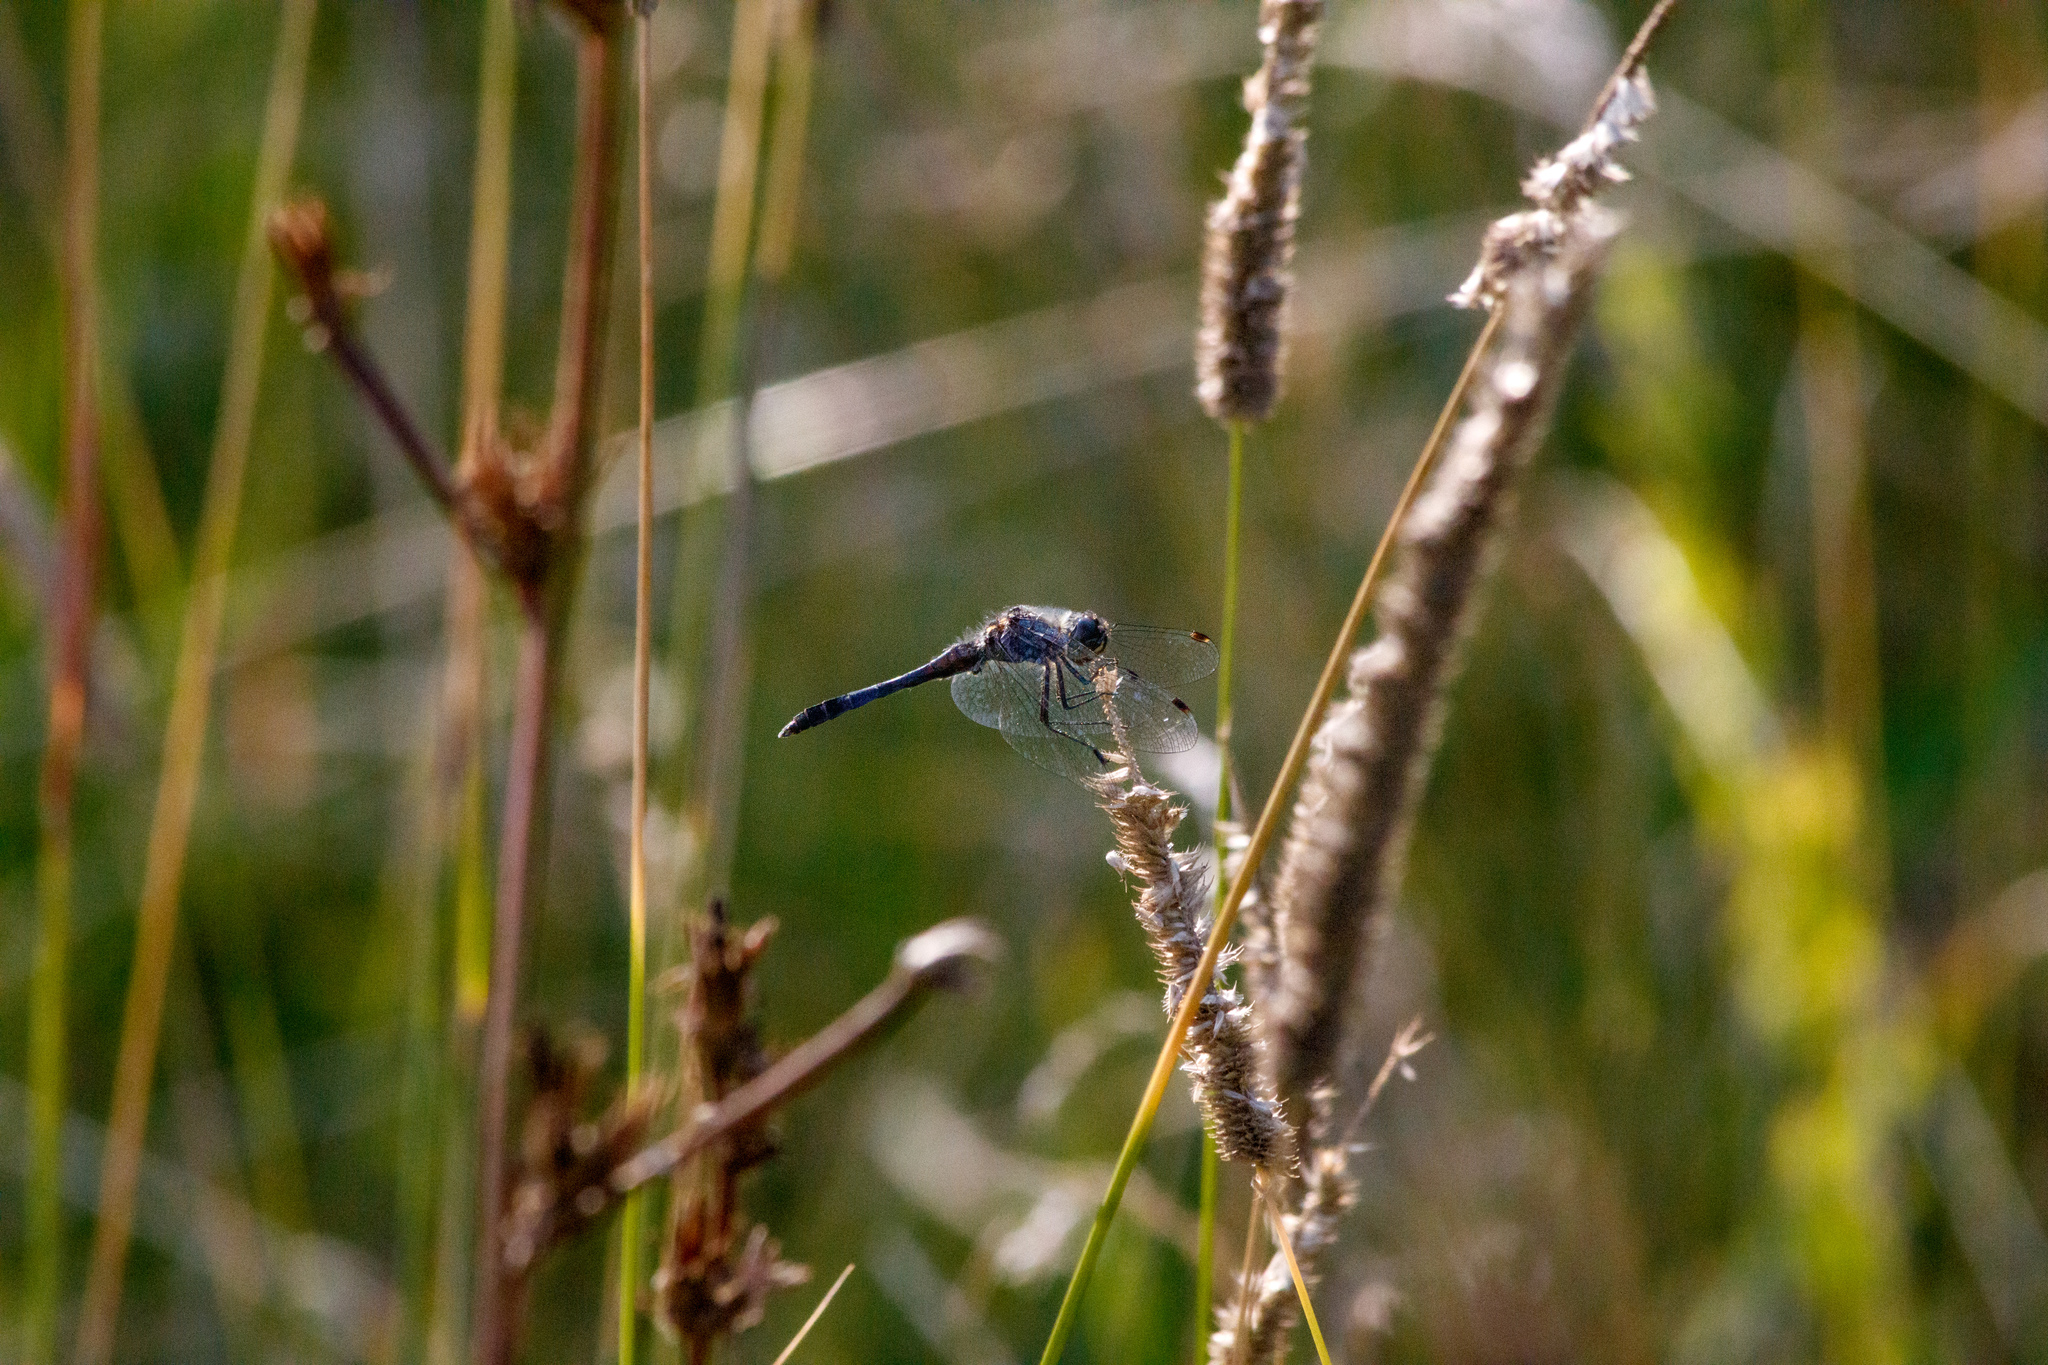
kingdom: Animalia
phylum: Arthropoda
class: Insecta
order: Odonata
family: Libellulidae
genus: Sympetrum
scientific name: Sympetrum danae
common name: Black darter
